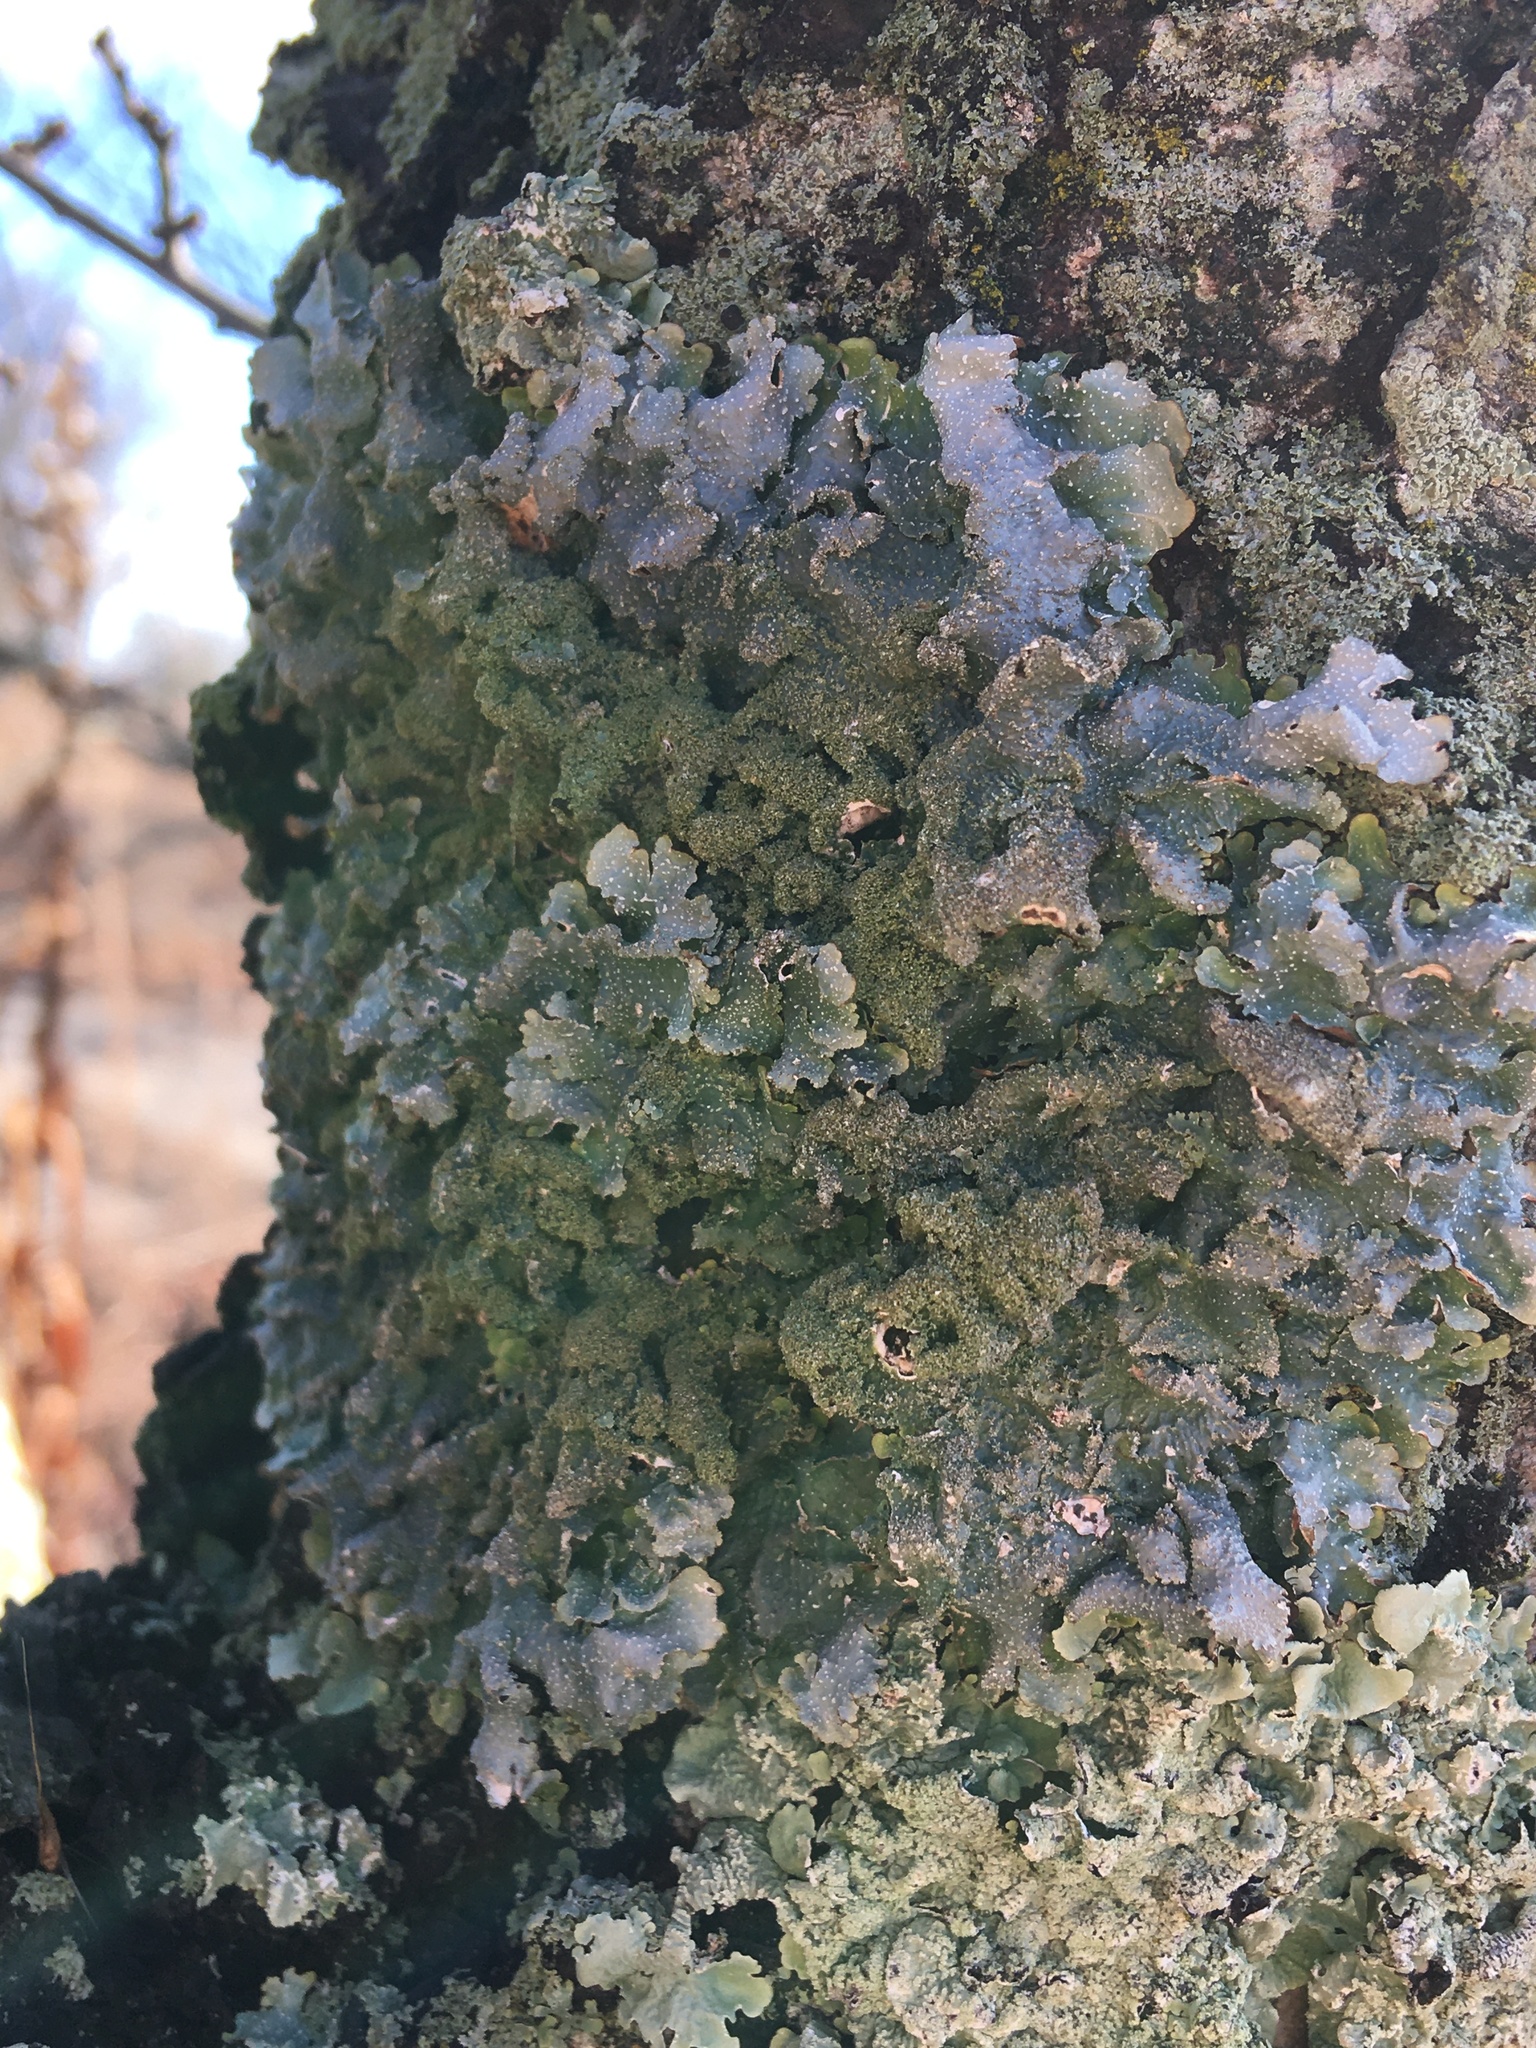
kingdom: Fungi
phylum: Ascomycota
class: Lecanoromycetes
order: Lecanorales
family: Parmeliaceae
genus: Punctelia
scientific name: Punctelia rudecta
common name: Rough speckled shield lichen
